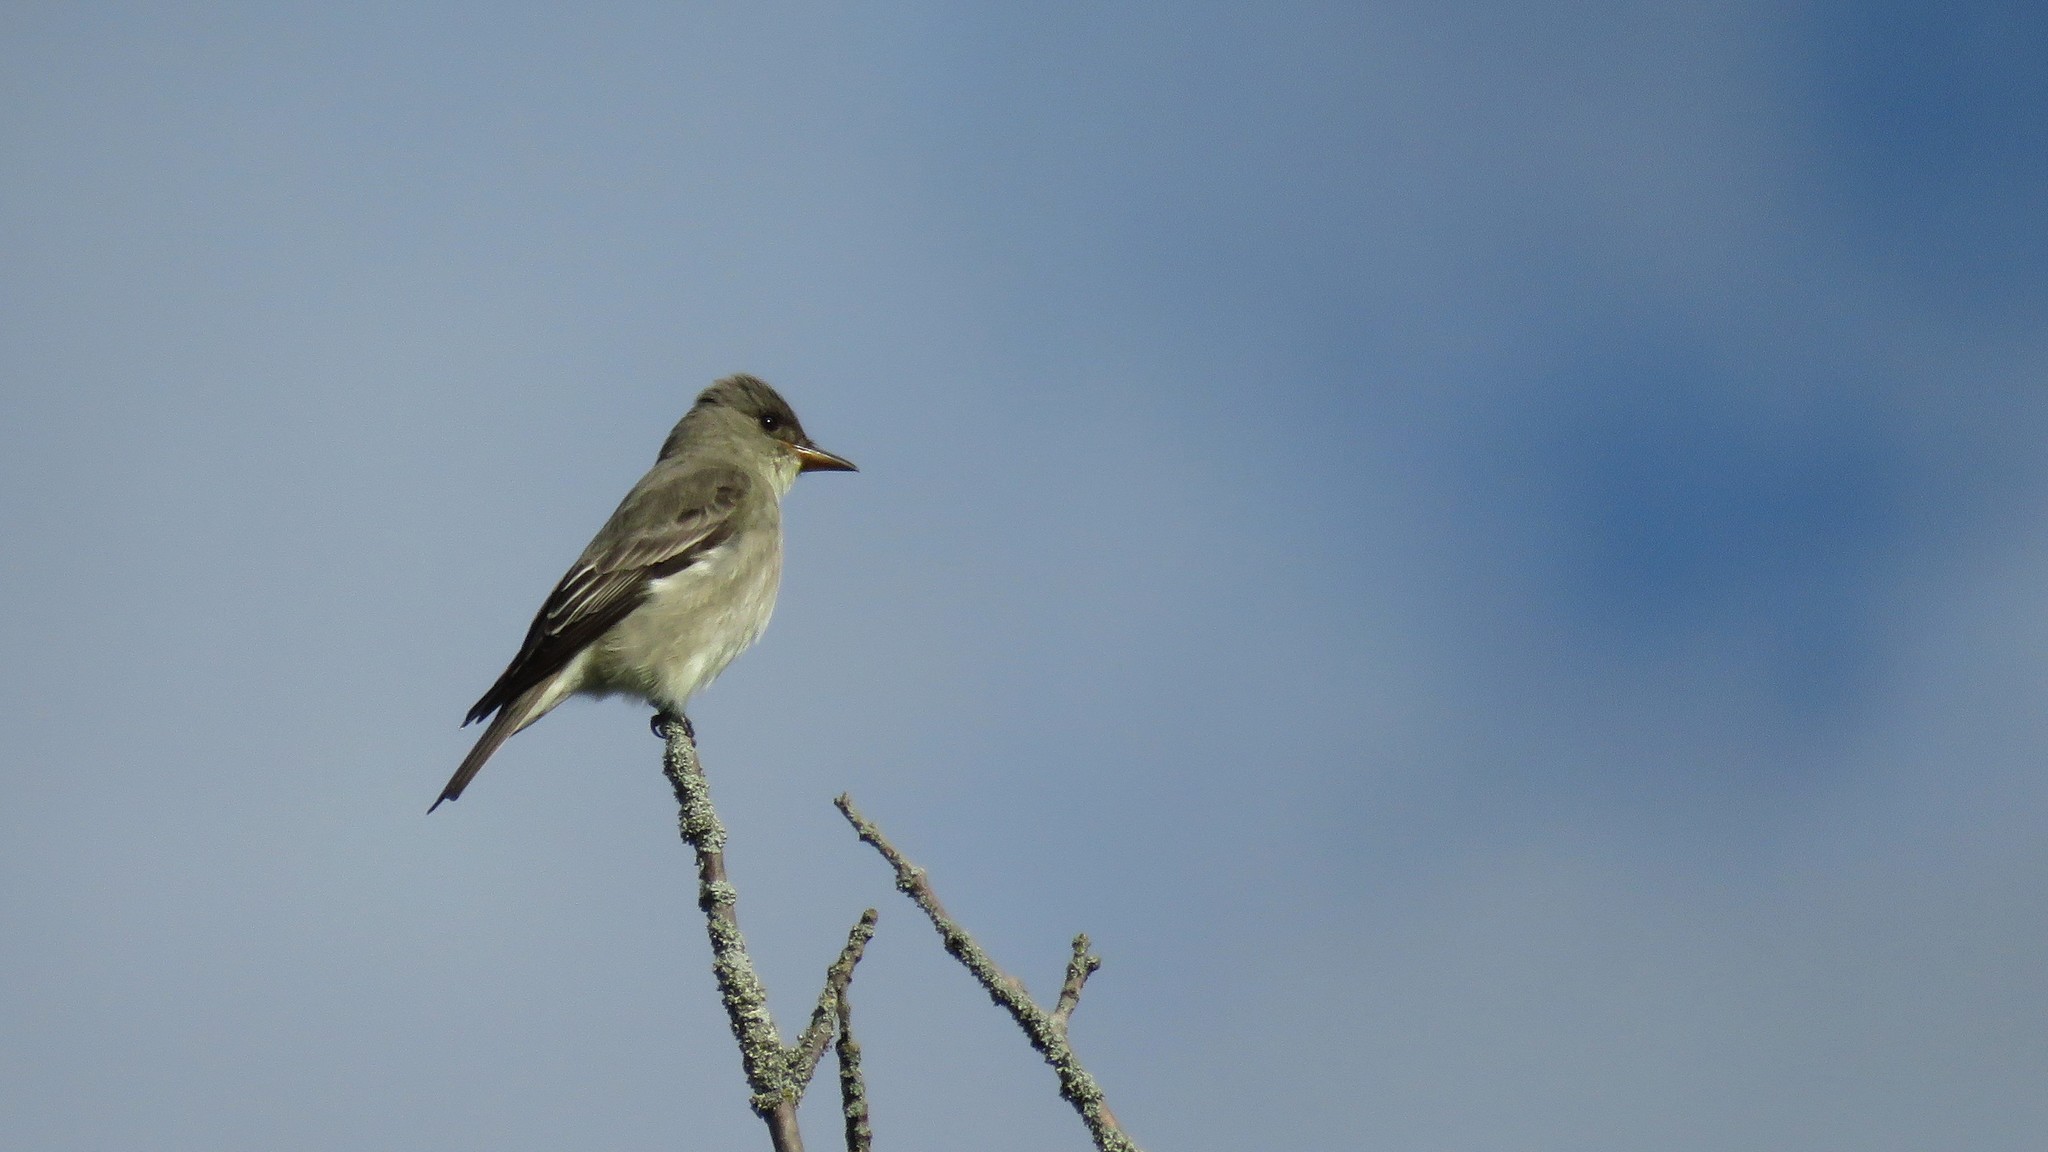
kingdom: Animalia
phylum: Chordata
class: Aves
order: Passeriformes
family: Tyrannidae
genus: Contopus
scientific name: Contopus cooperi
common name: Olive-sided flycatcher
